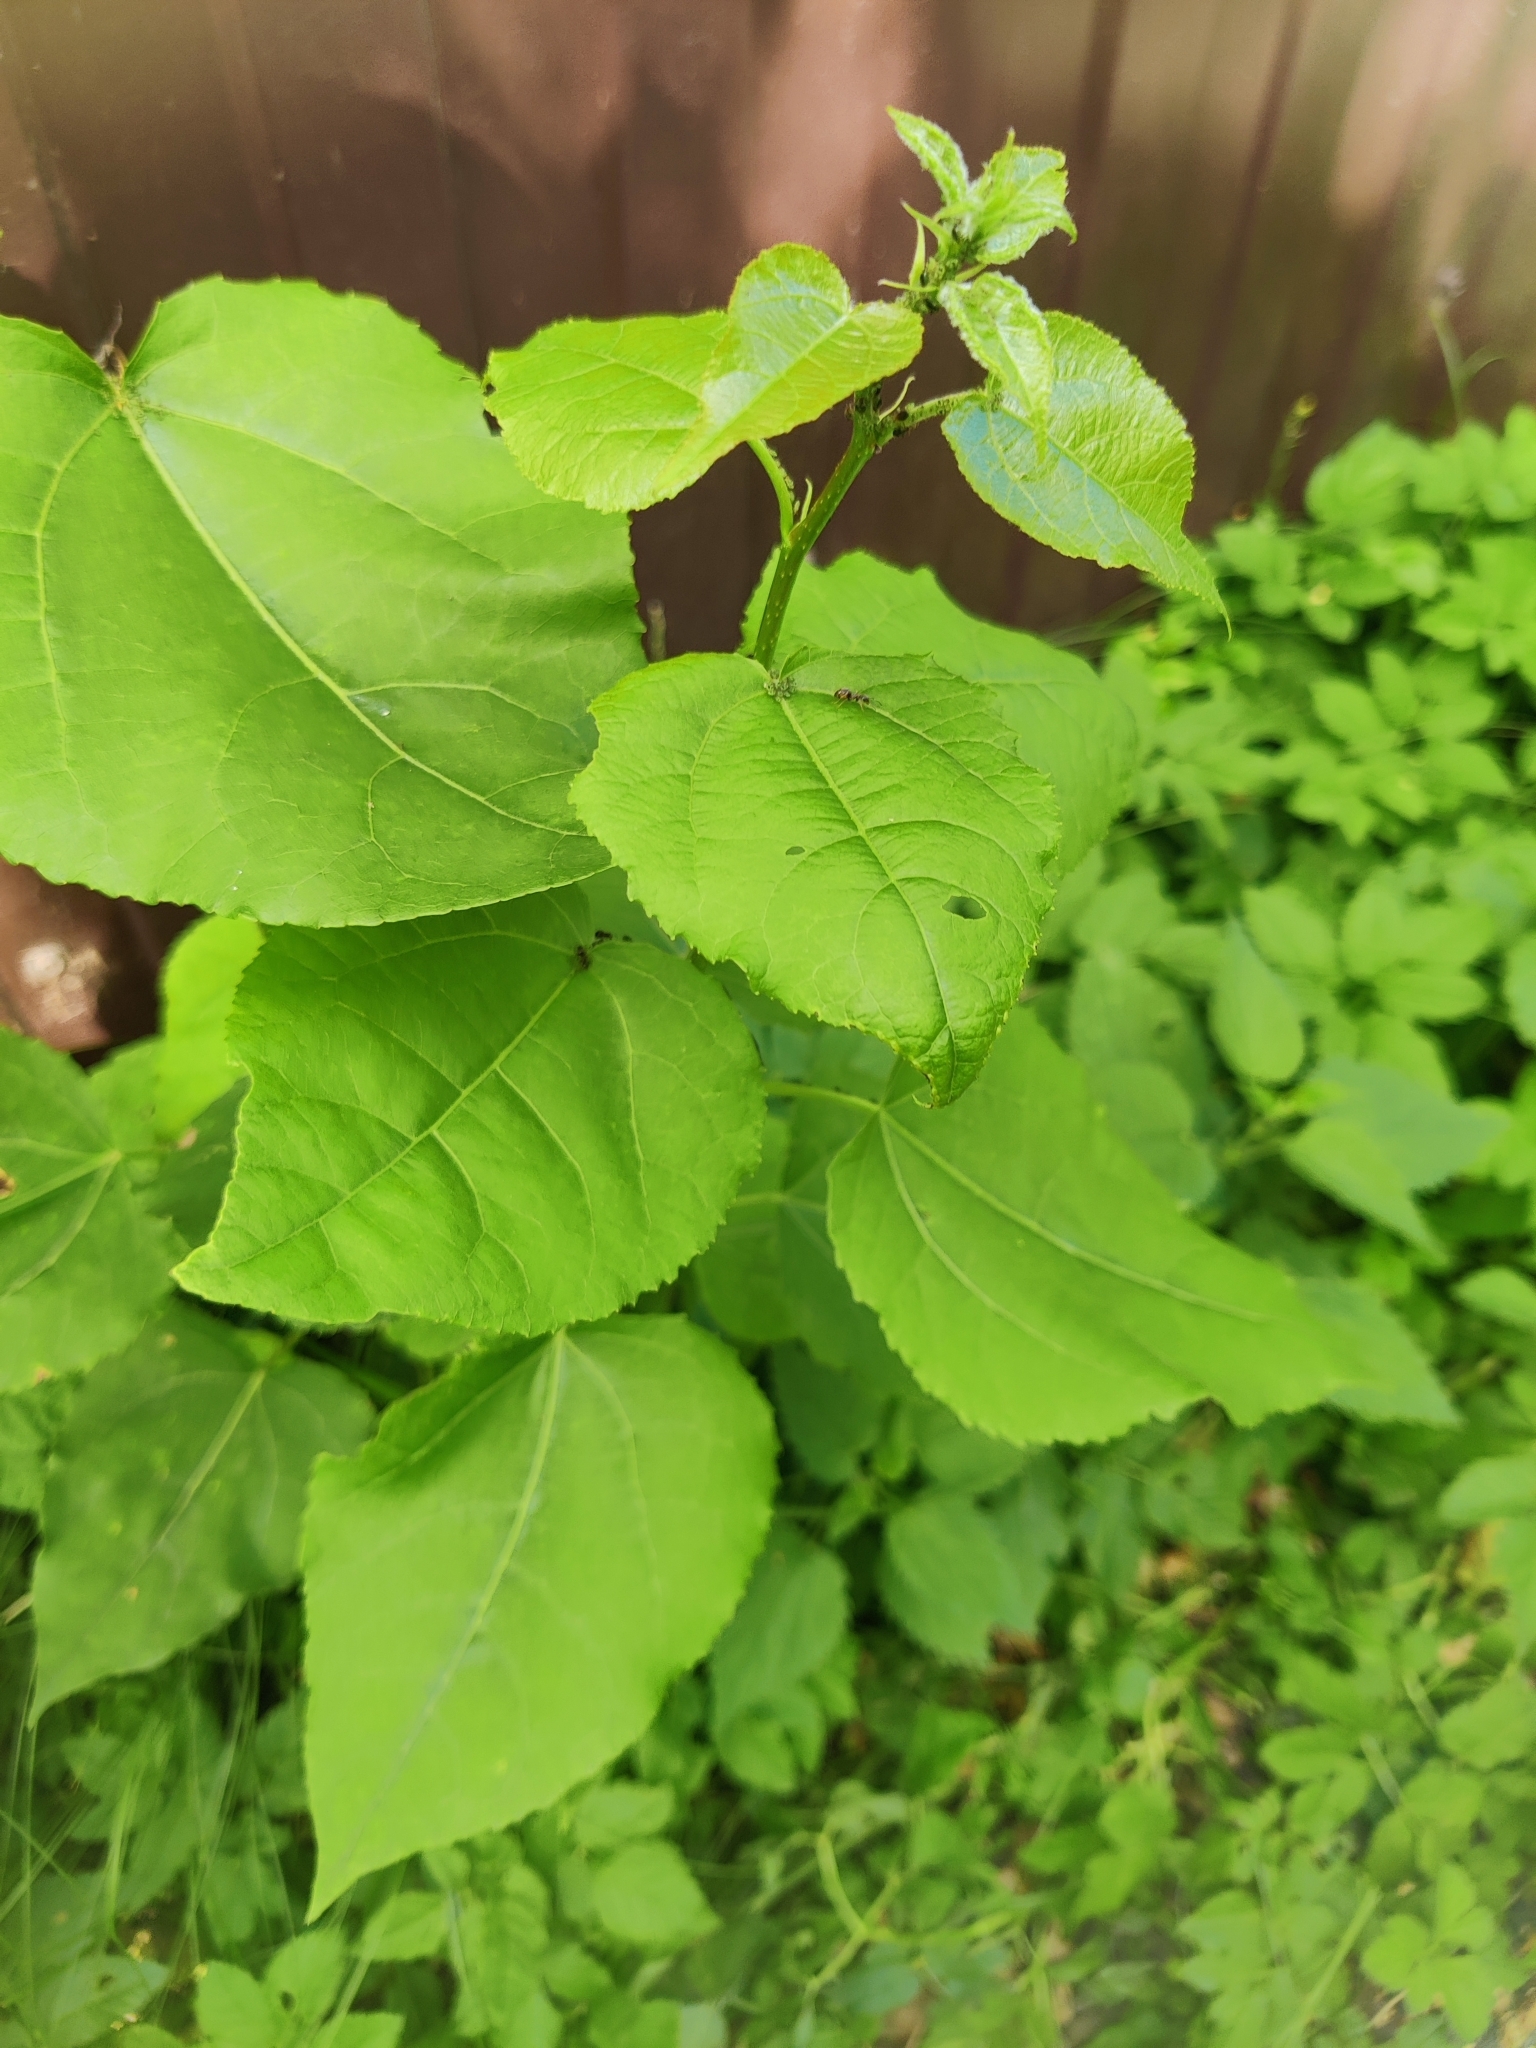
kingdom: Plantae
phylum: Tracheophyta
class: Magnoliopsida
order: Malpighiales
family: Salicaceae
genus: Populus
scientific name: Populus tremula
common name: European aspen
